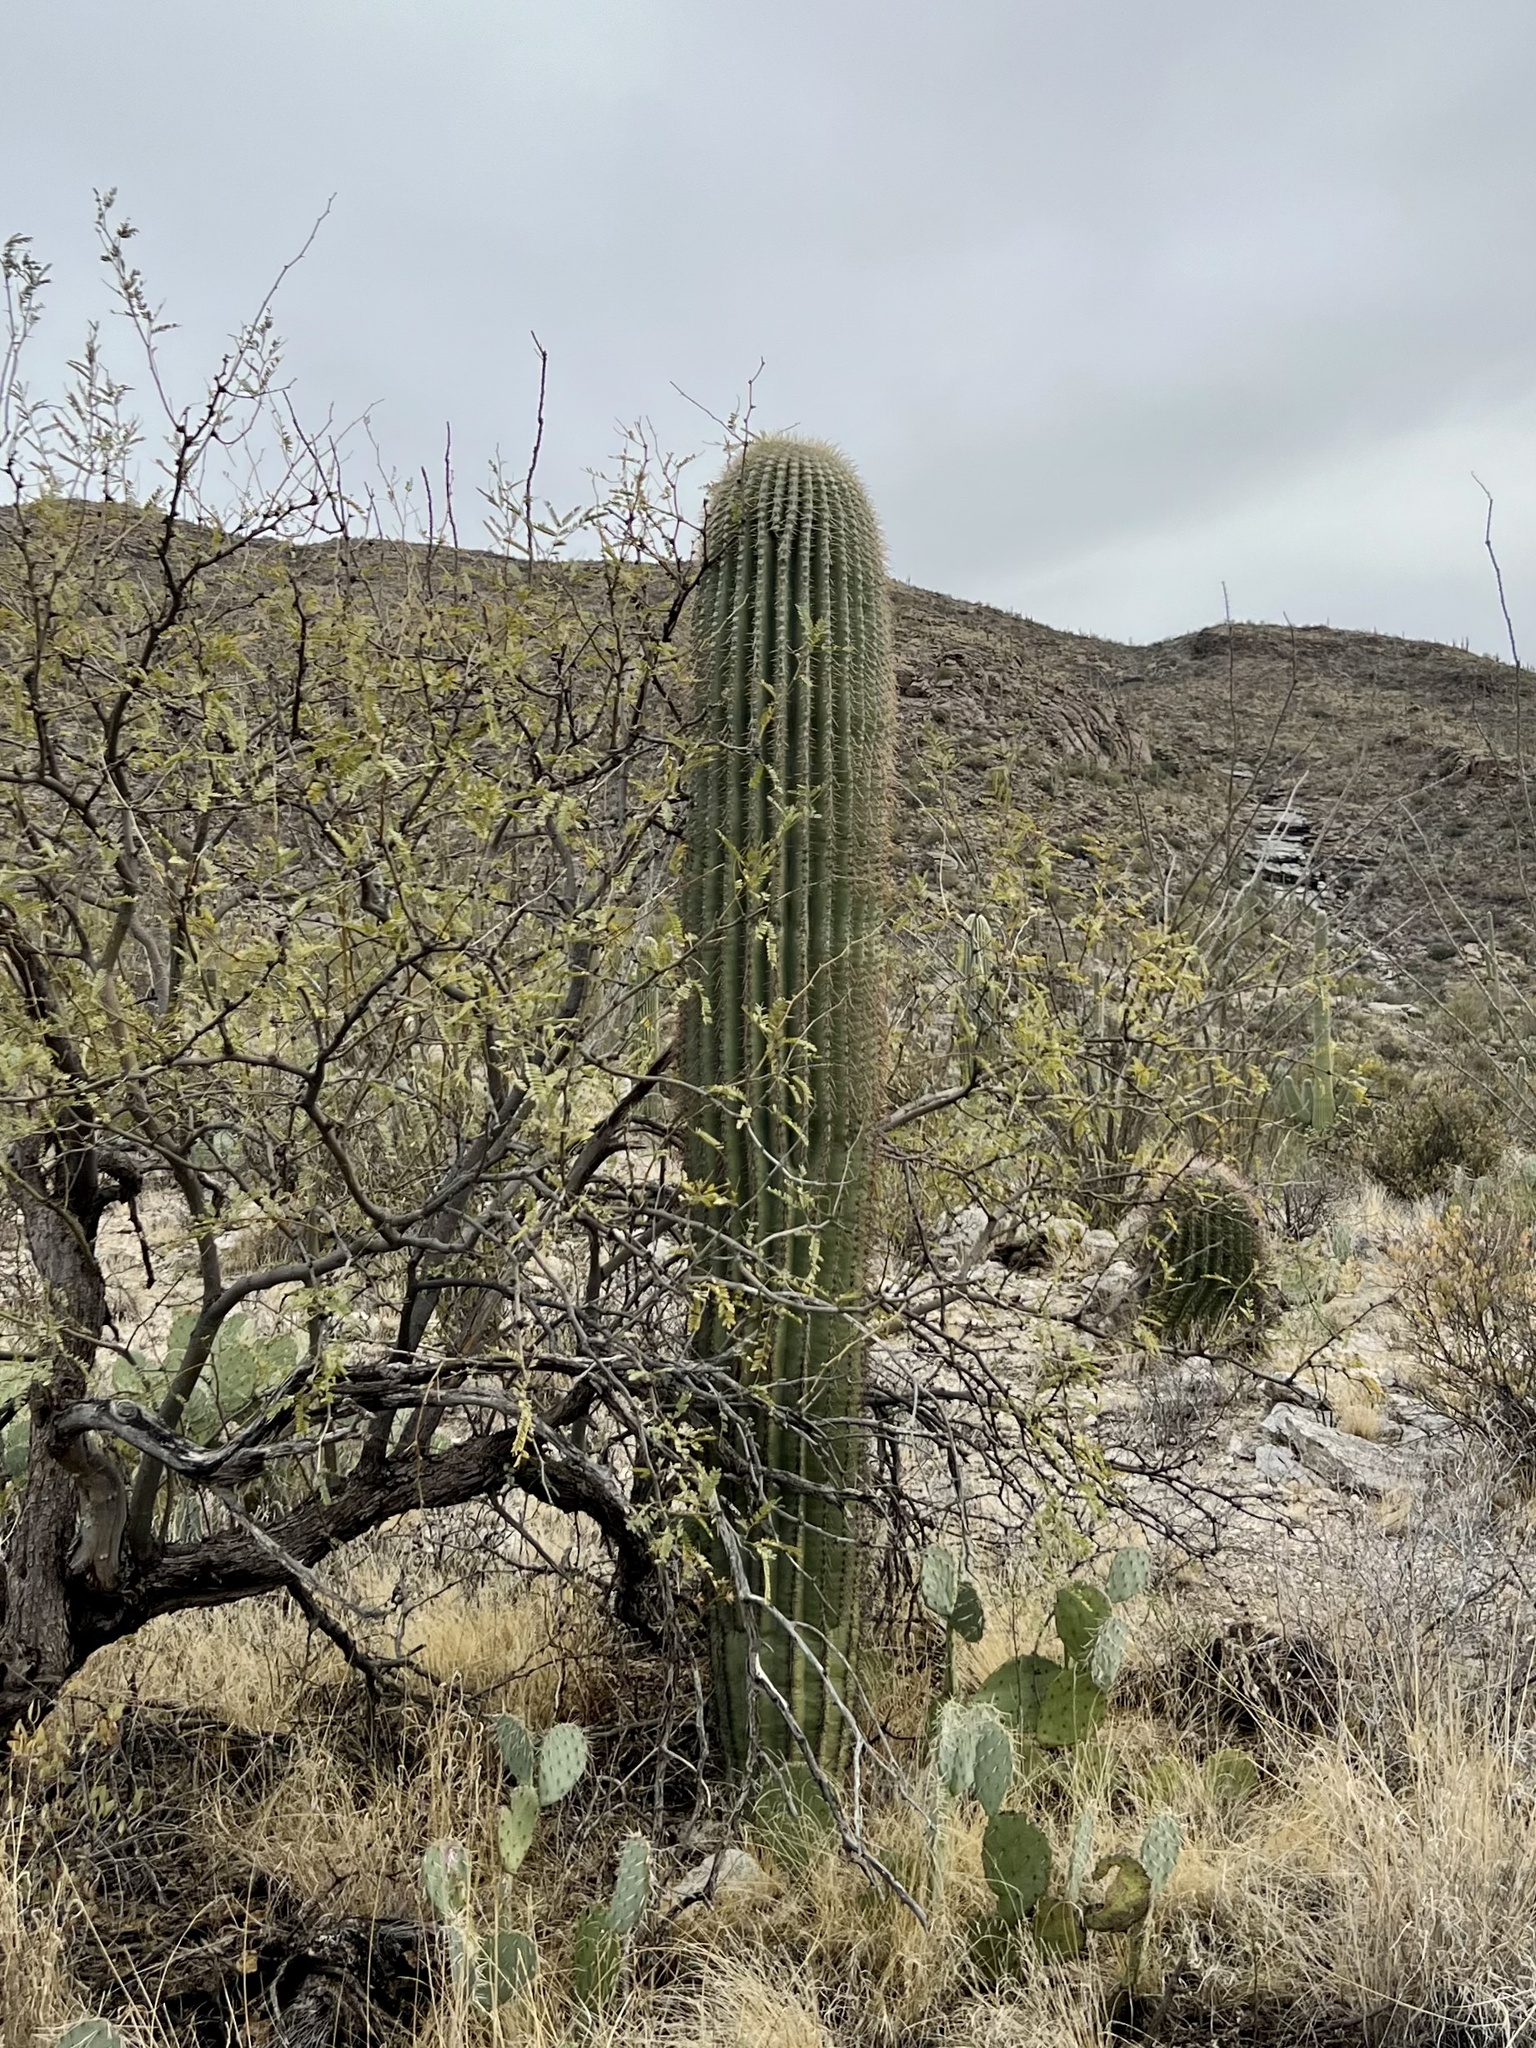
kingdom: Plantae
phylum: Tracheophyta
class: Magnoliopsida
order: Caryophyllales
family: Cactaceae
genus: Carnegiea
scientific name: Carnegiea gigantea
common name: Saguaro
